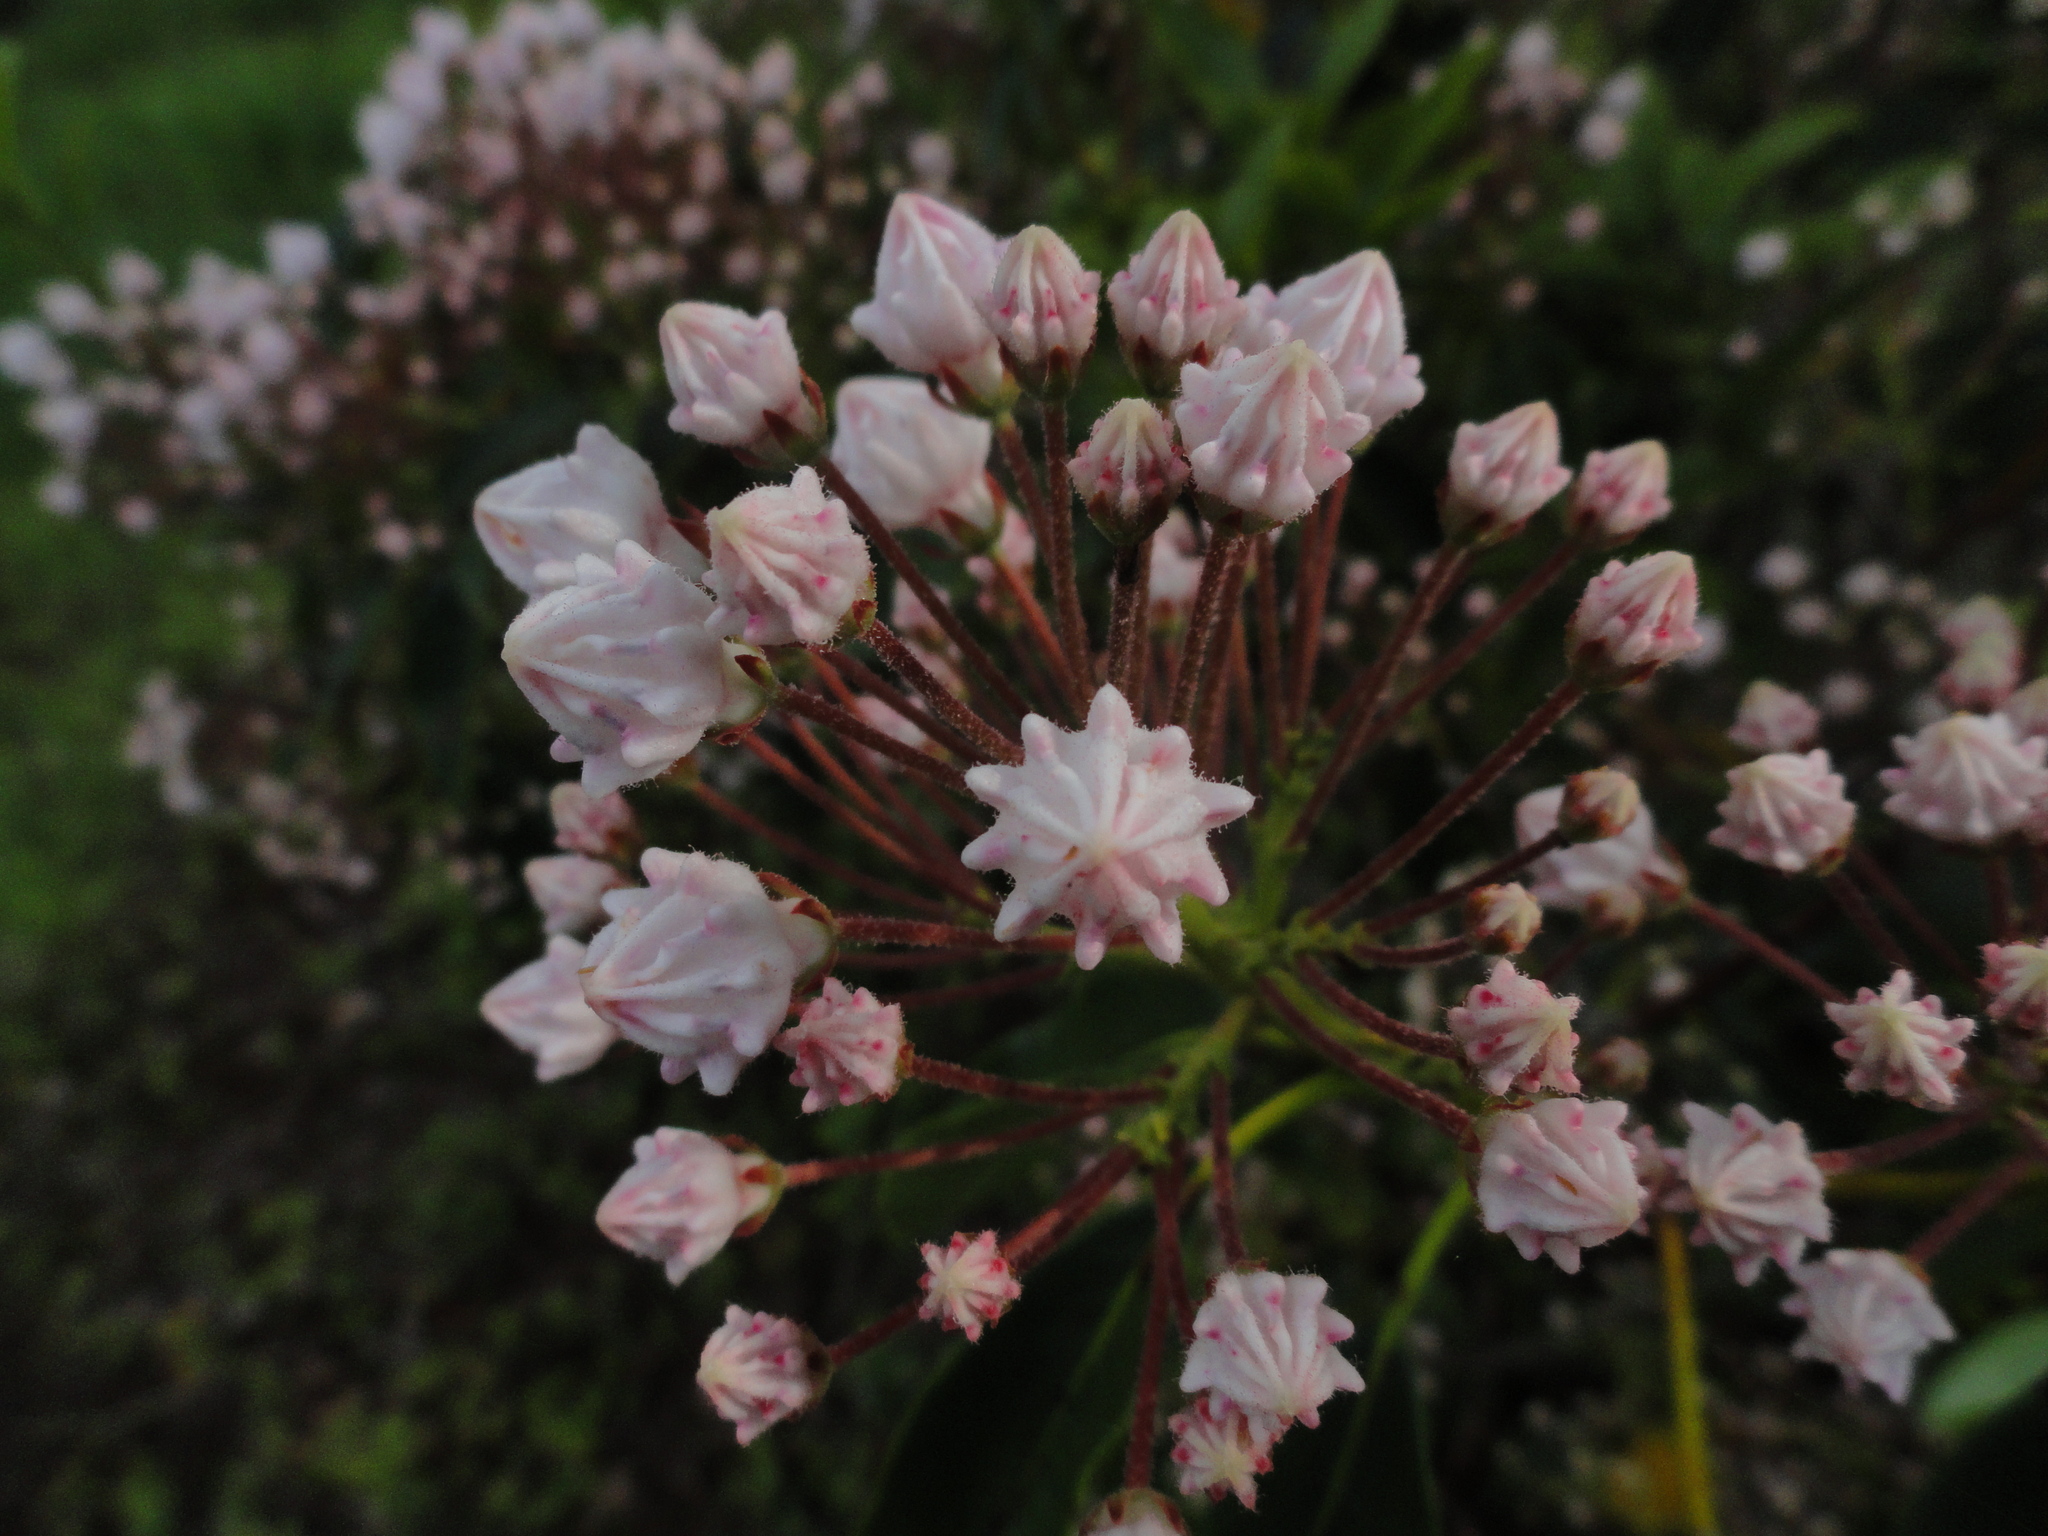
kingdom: Plantae
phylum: Tracheophyta
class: Magnoliopsida
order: Ericales
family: Ericaceae
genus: Kalmia
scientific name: Kalmia latifolia
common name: Mountain-laurel
